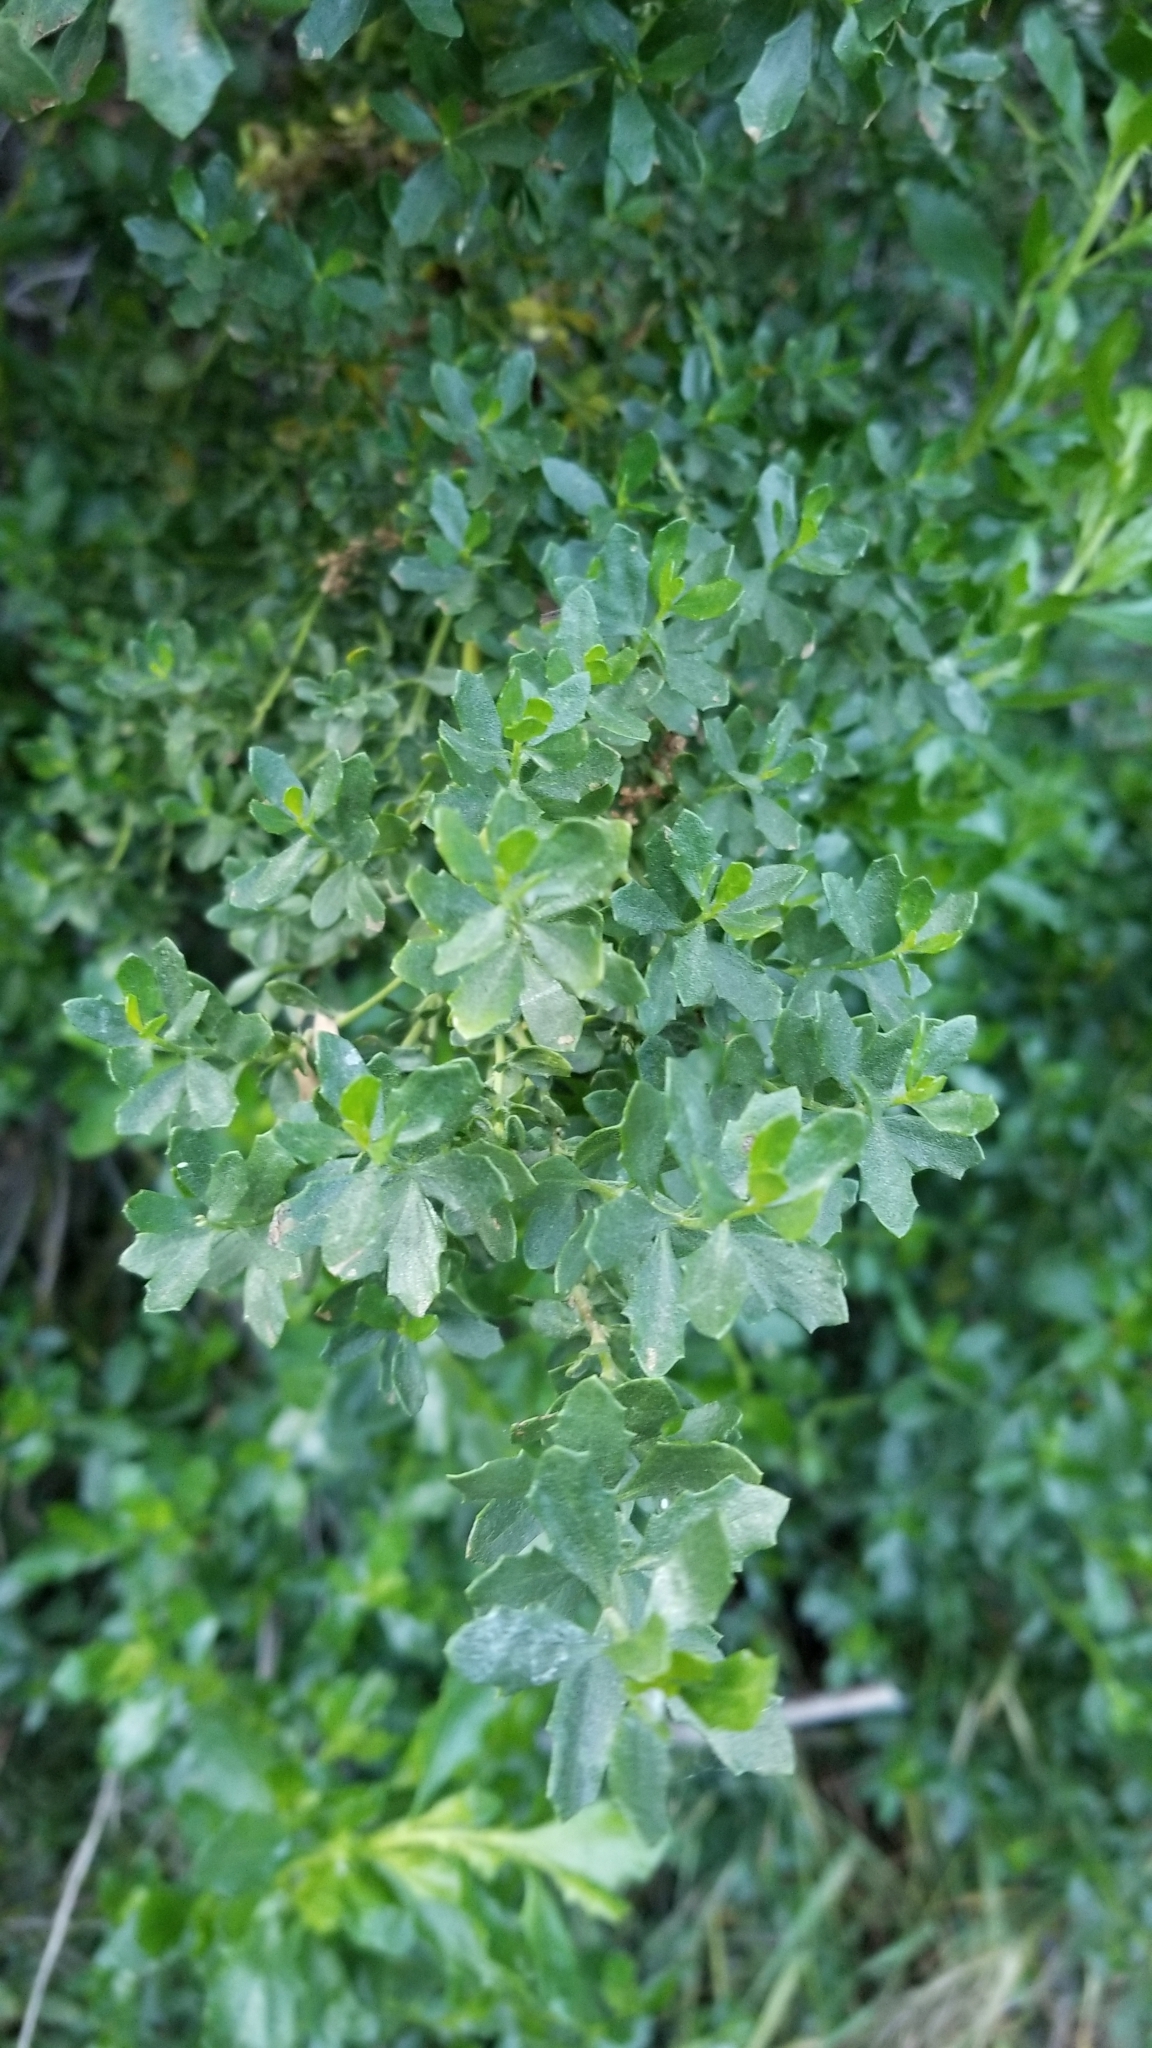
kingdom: Plantae
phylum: Tracheophyta
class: Magnoliopsida
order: Asterales
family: Asteraceae
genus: Baccharis
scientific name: Baccharis pilularis
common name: Coyotebrush
